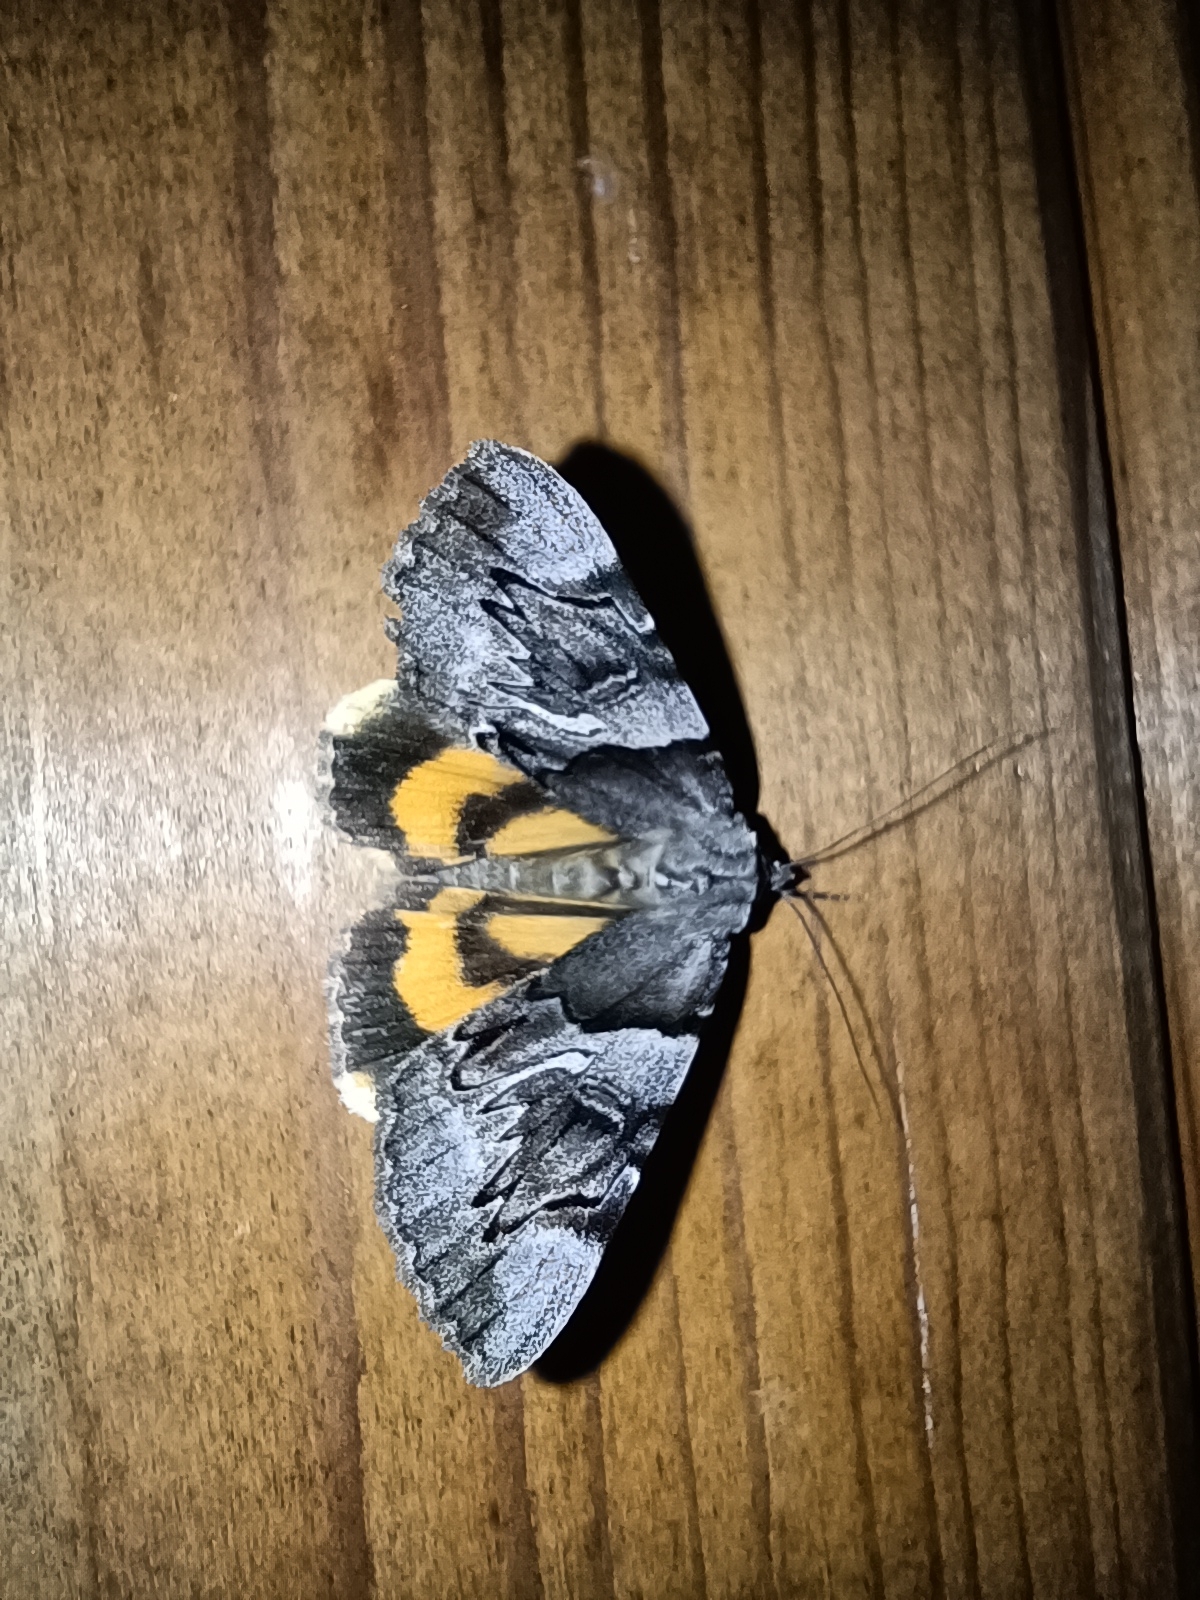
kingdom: Animalia
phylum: Arthropoda
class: Insecta
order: Lepidoptera
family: Erebidae
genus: Catocala
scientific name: Catocala fulminea
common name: Yellow bands underwing
